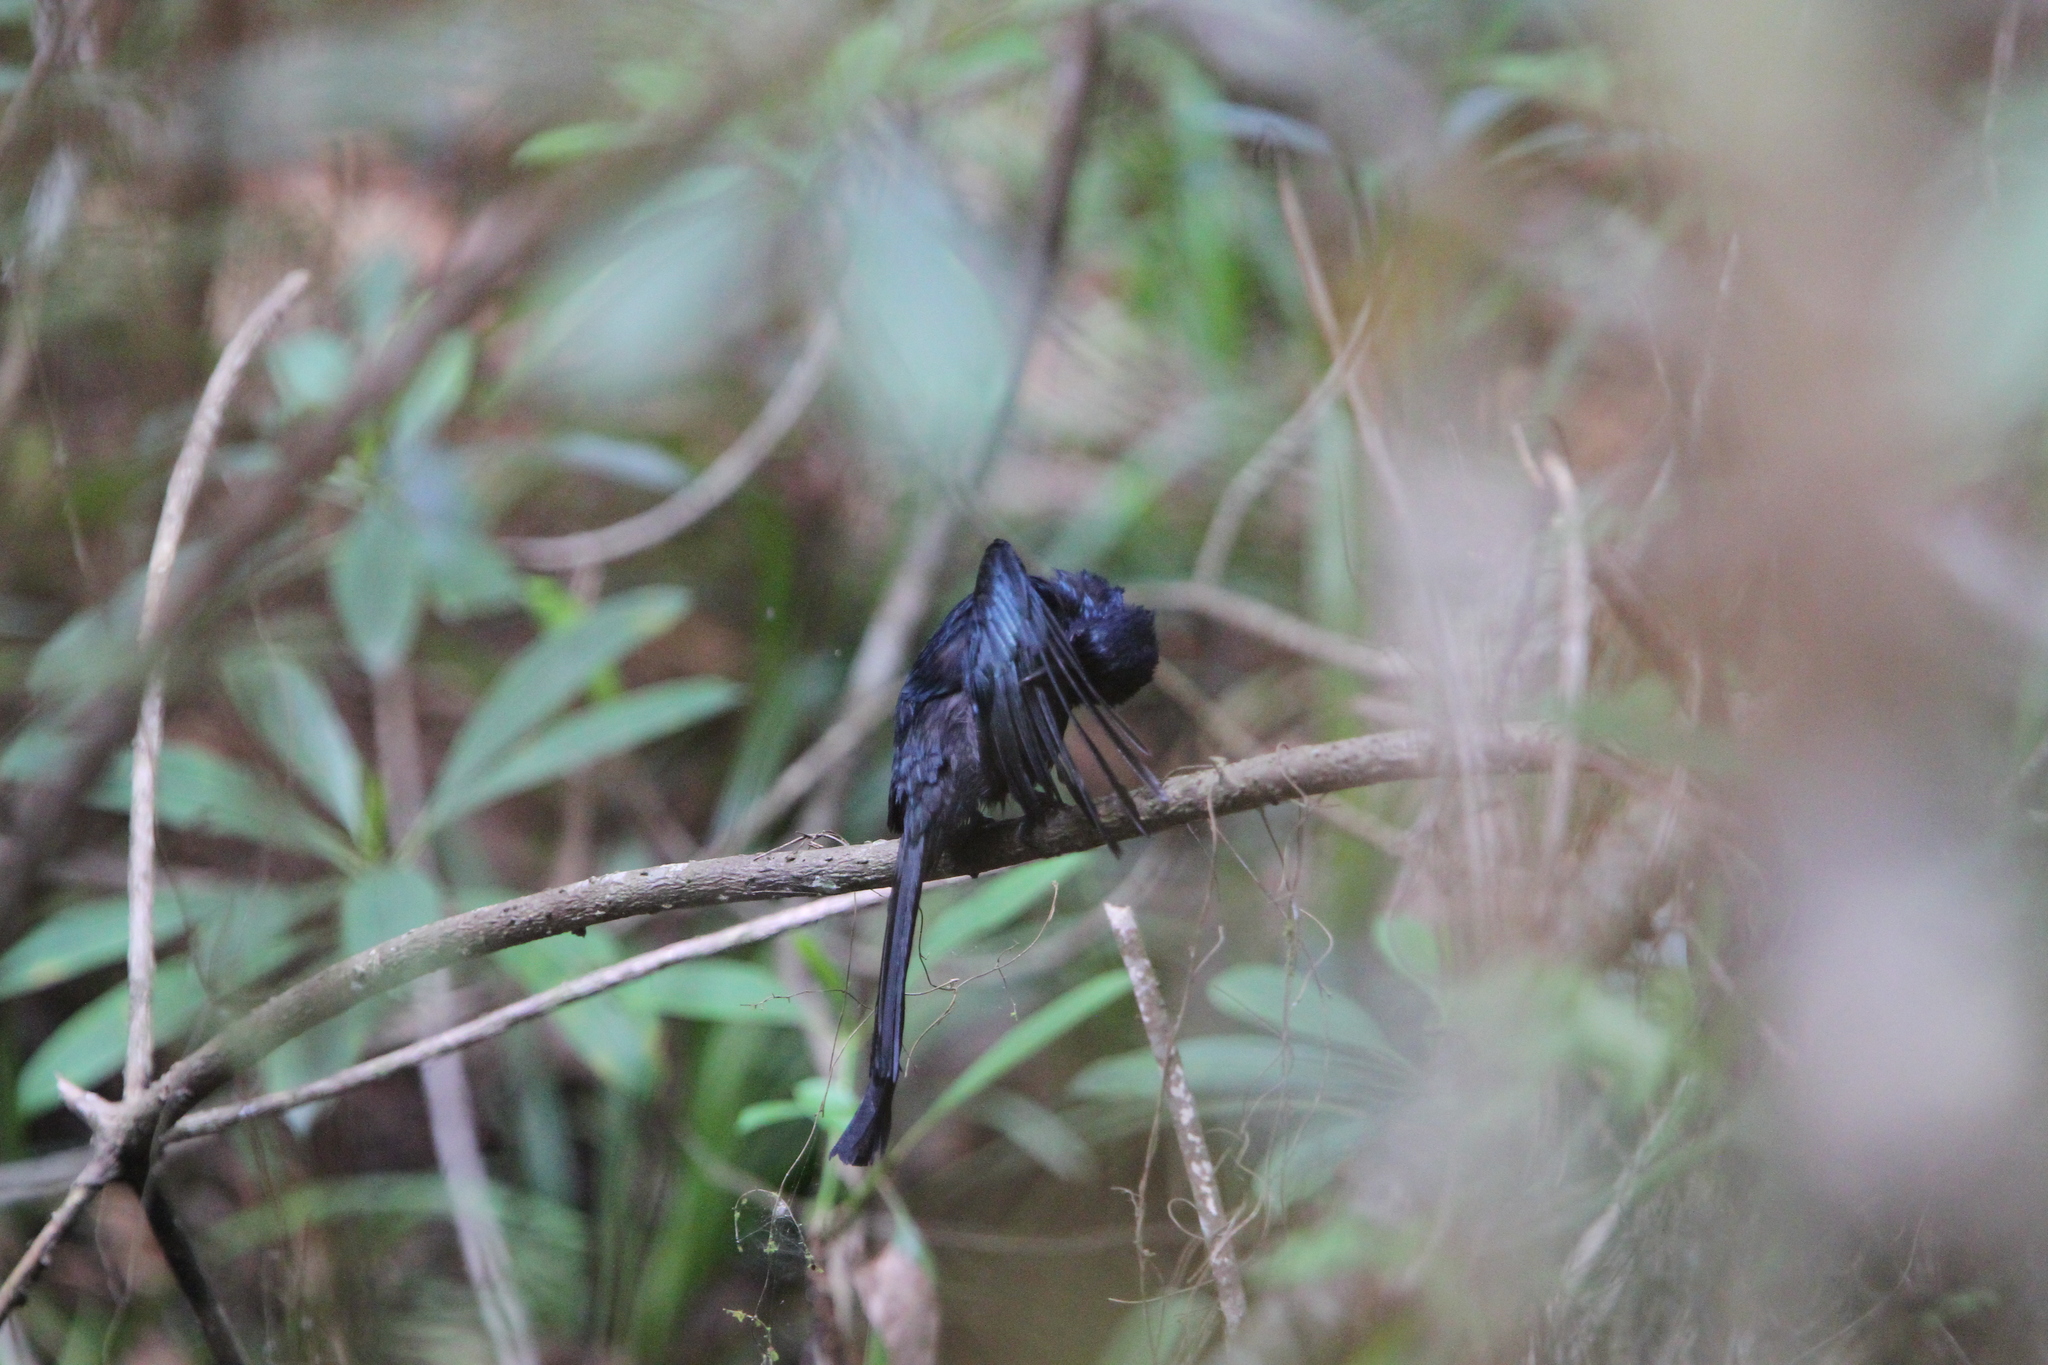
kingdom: Animalia
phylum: Chordata
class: Aves
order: Passeriformes
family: Dicruridae
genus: Dicrurus
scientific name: Dicrurus lophorinus
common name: Sri lanka drongo
